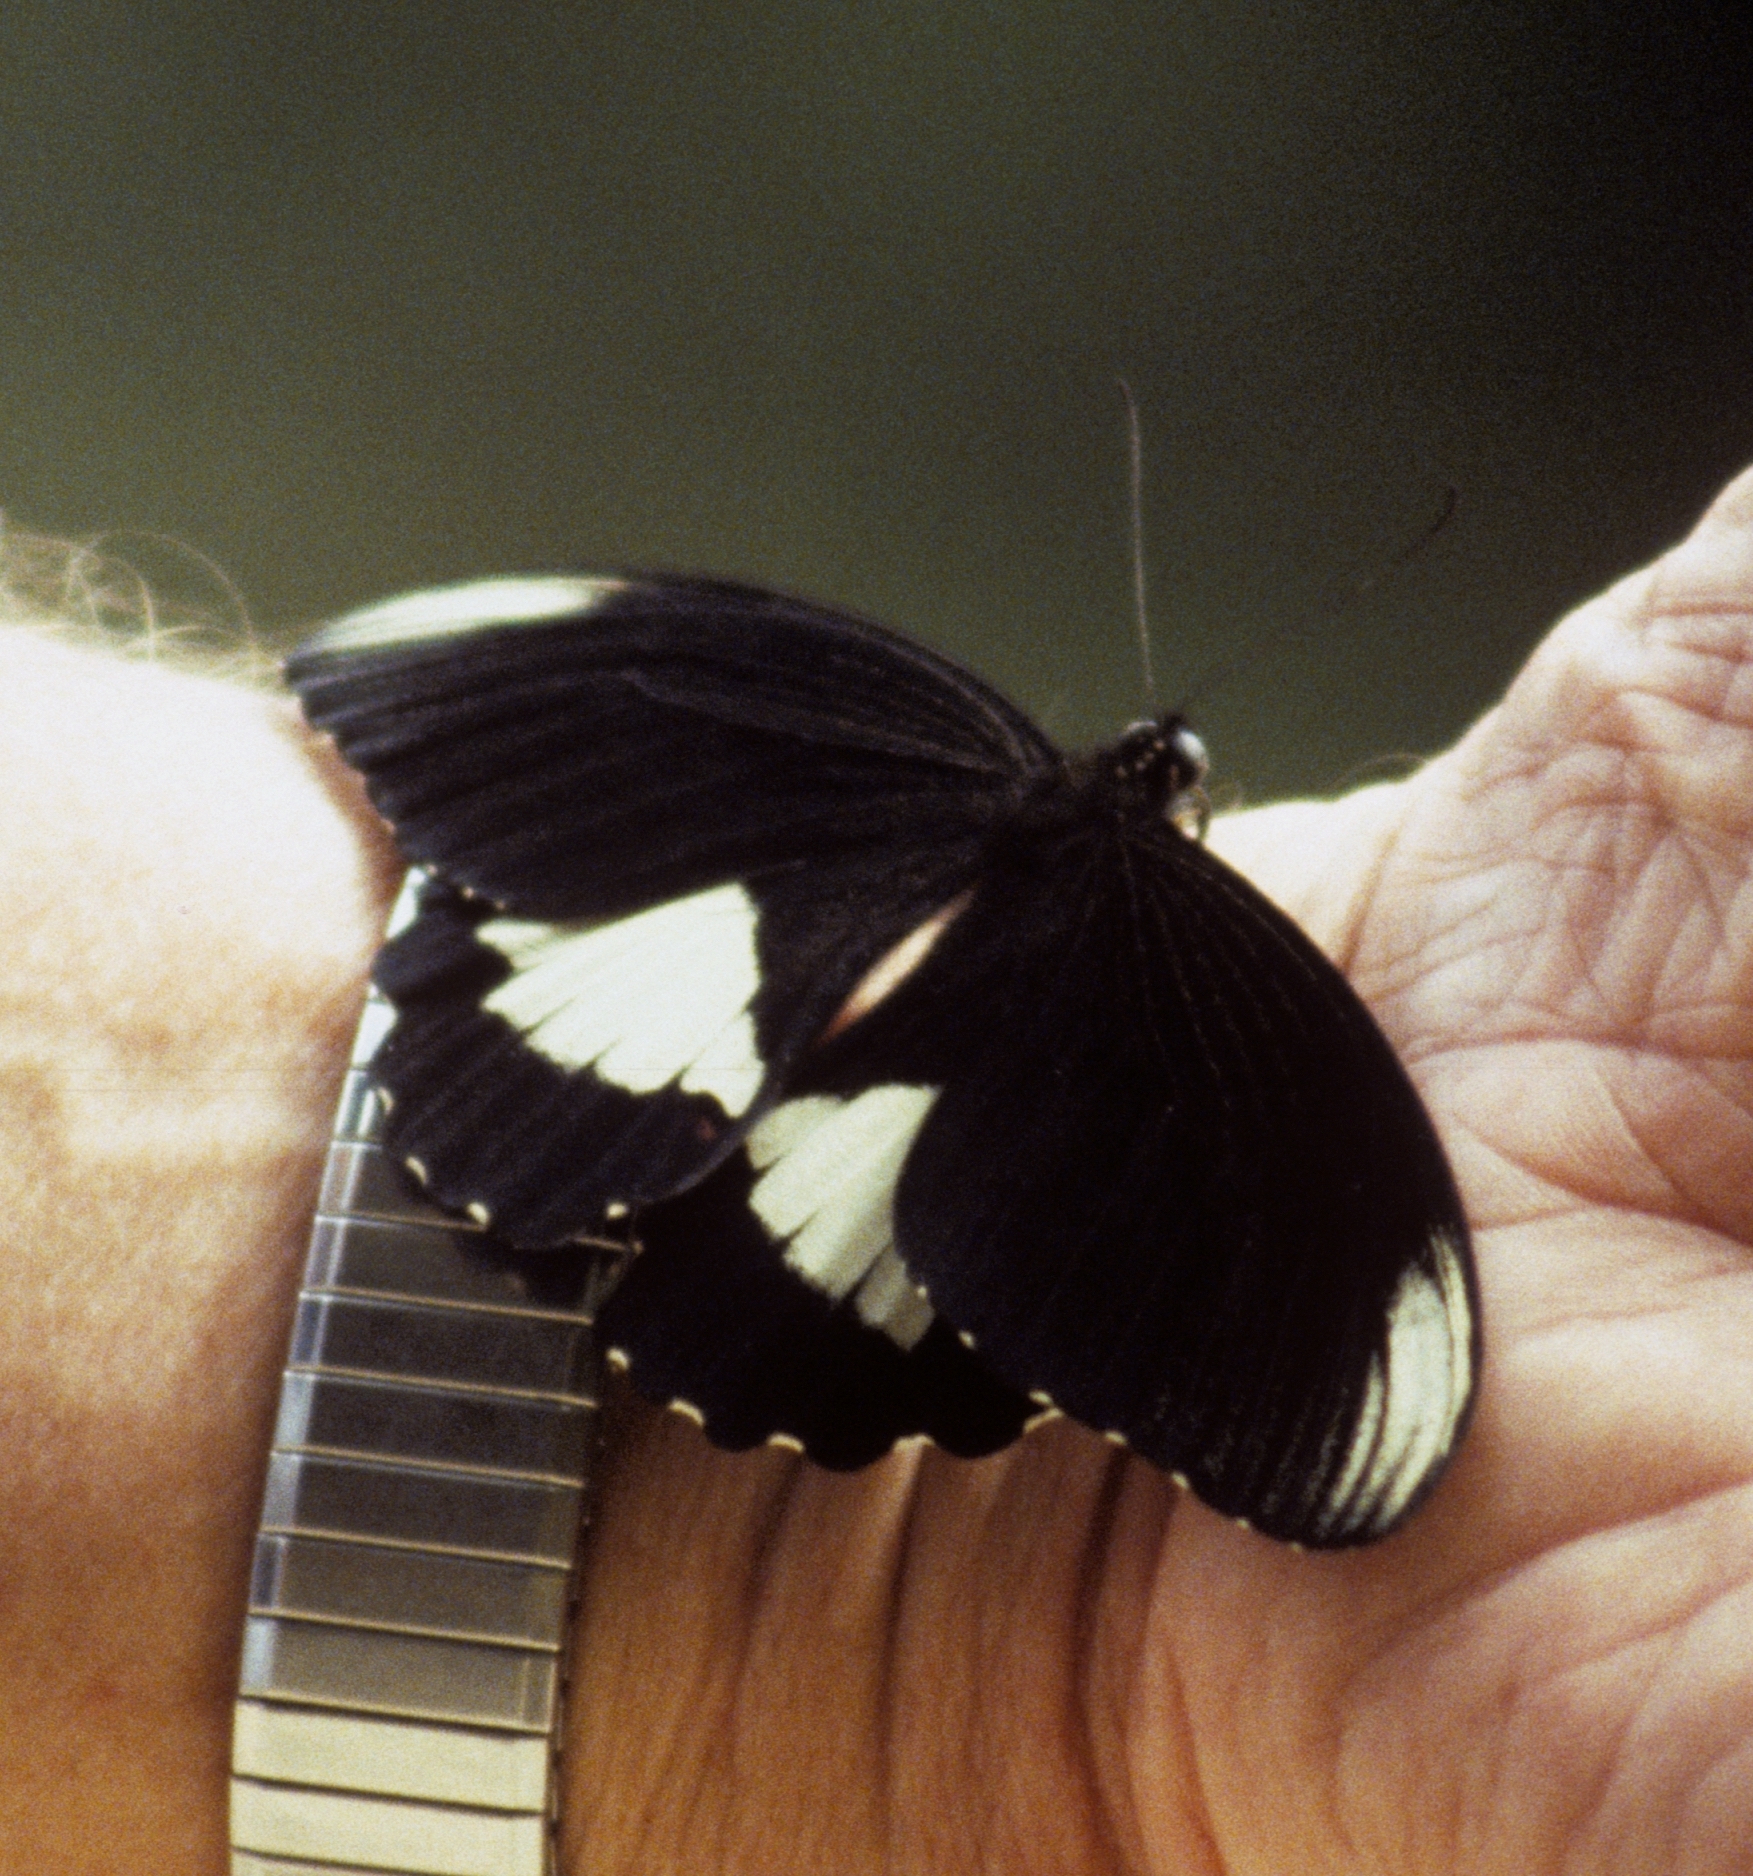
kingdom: Animalia
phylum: Arthropoda
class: Insecta
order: Lepidoptera
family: Papilionidae
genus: Papilio
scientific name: Papilio ambrax
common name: Ambrax butterfly
